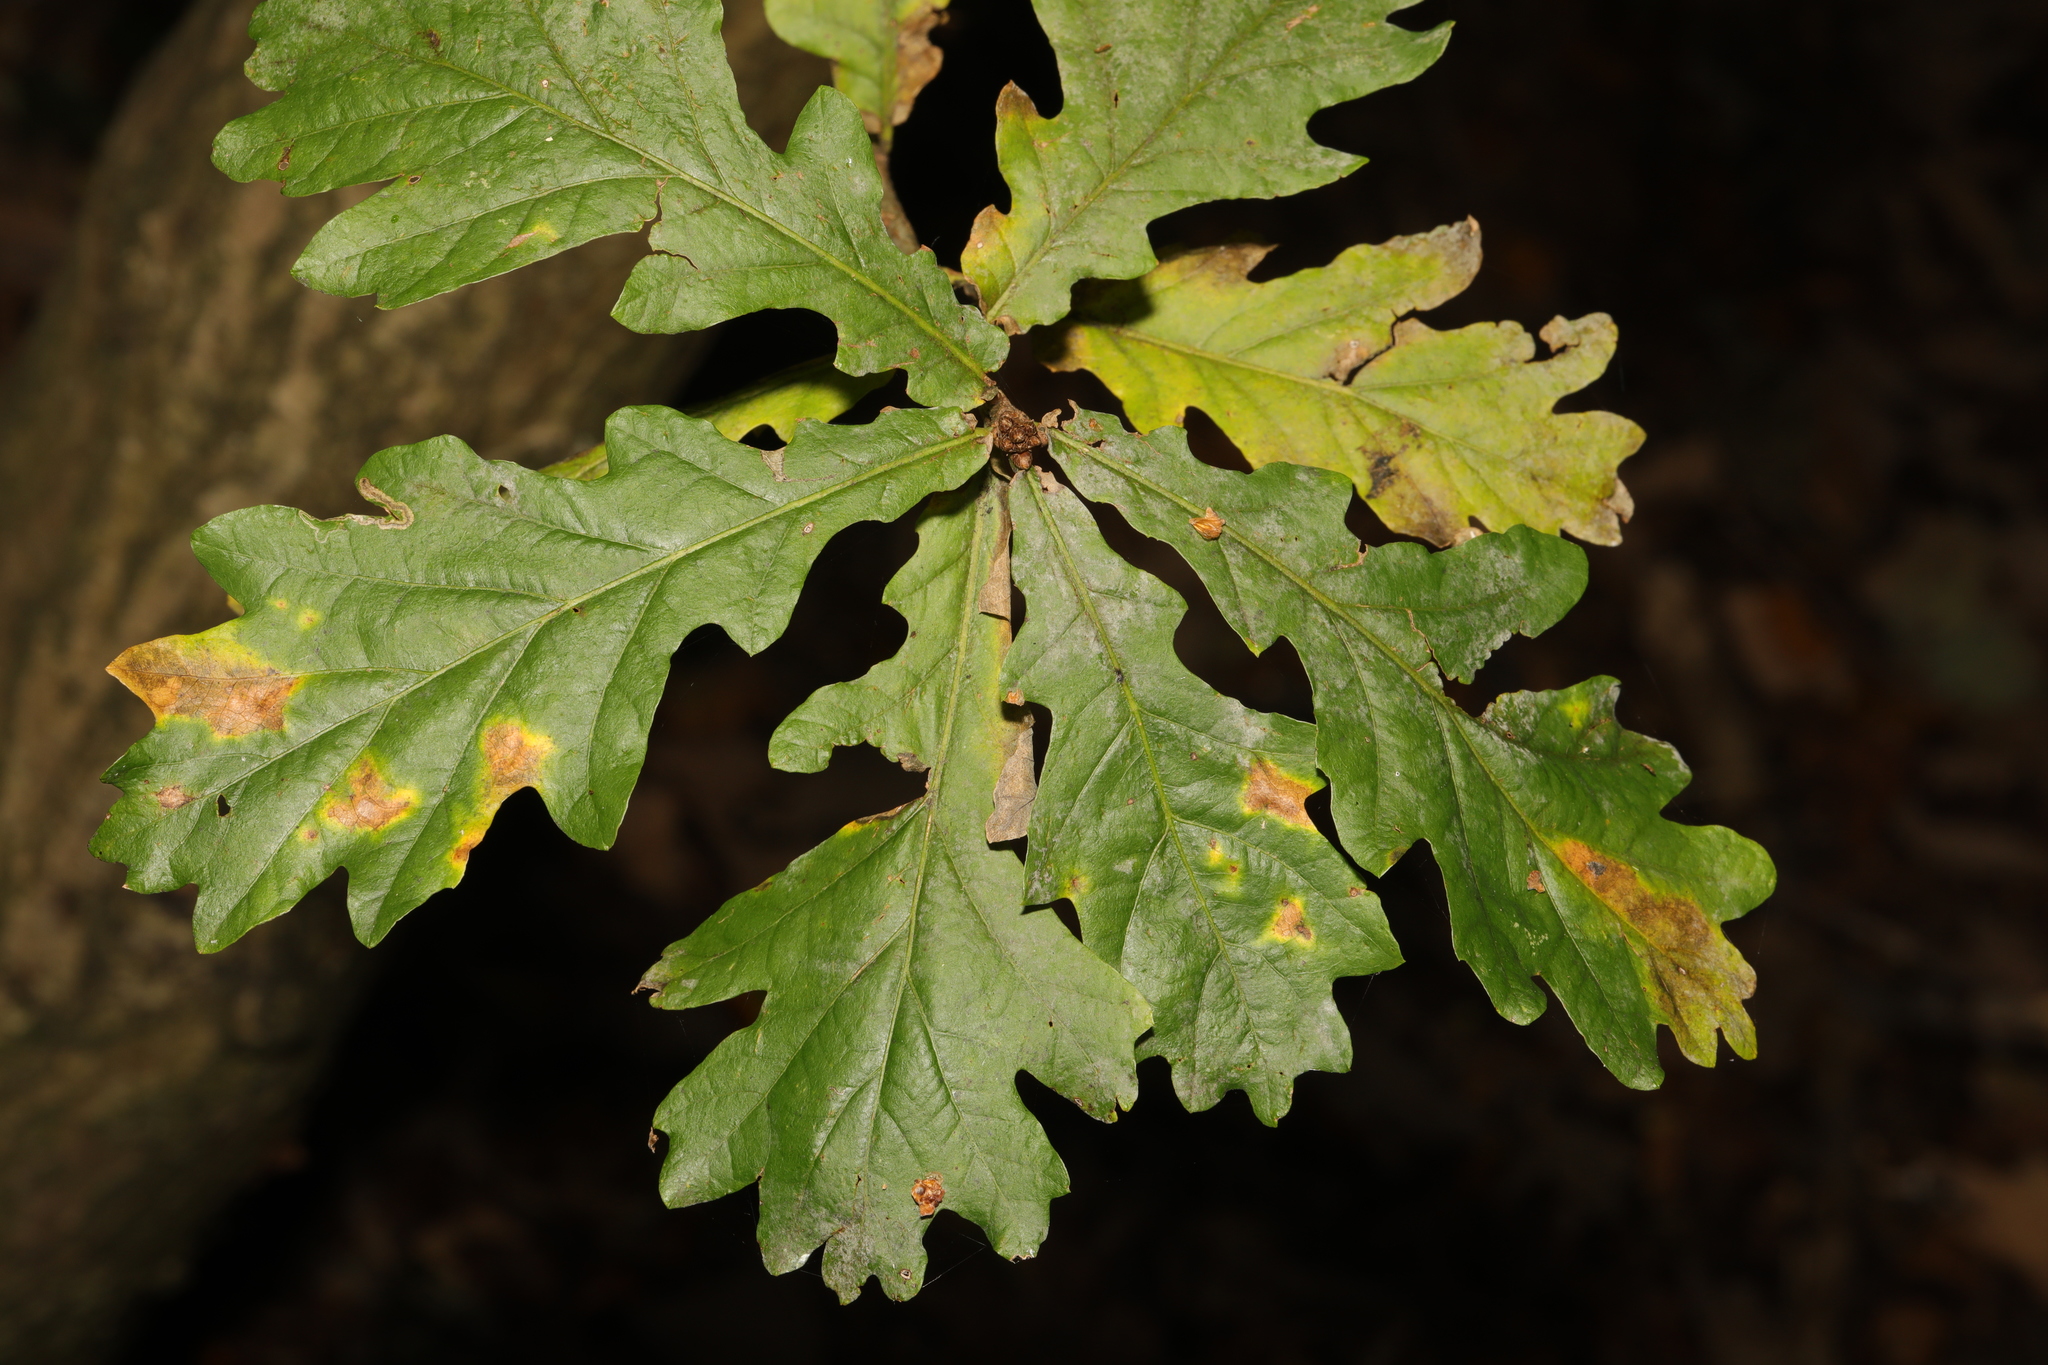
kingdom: Plantae
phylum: Tracheophyta
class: Magnoliopsida
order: Fagales
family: Fagaceae
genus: Quercus
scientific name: Quercus robur
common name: Pedunculate oak
